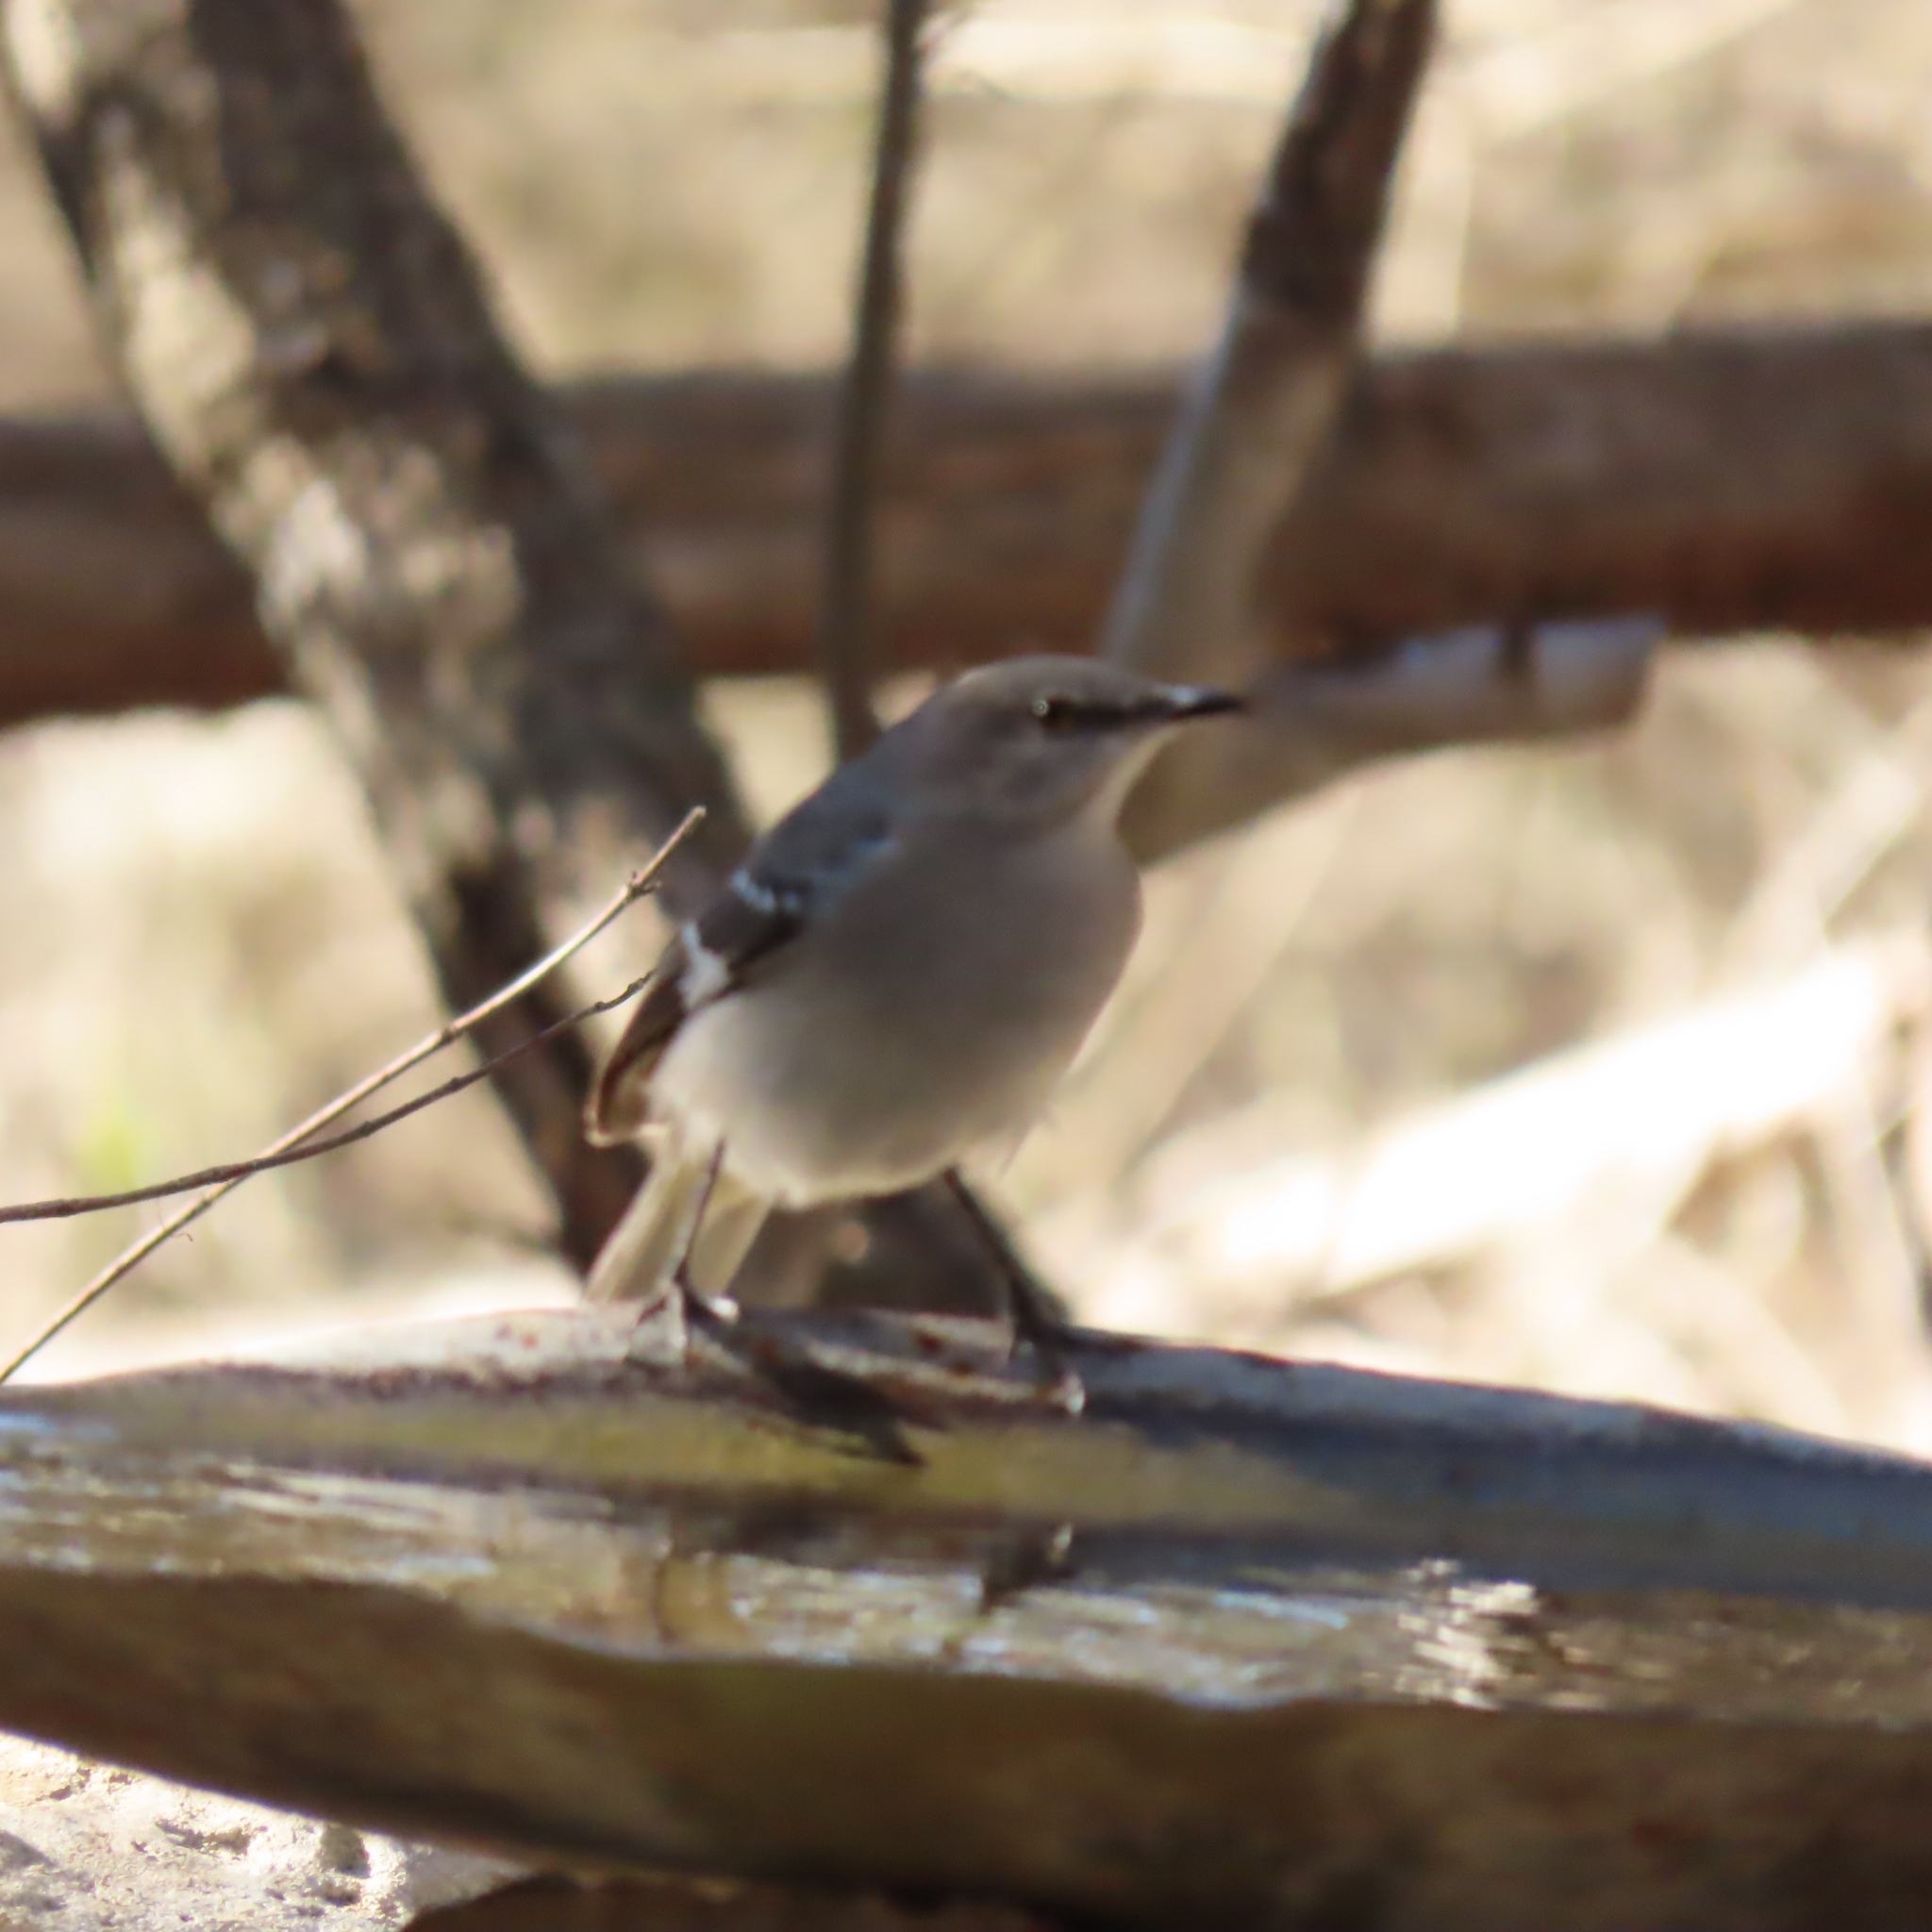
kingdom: Animalia
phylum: Chordata
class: Aves
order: Passeriformes
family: Mimidae
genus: Mimus
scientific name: Mimus polyglottos
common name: Northern mockingbird
